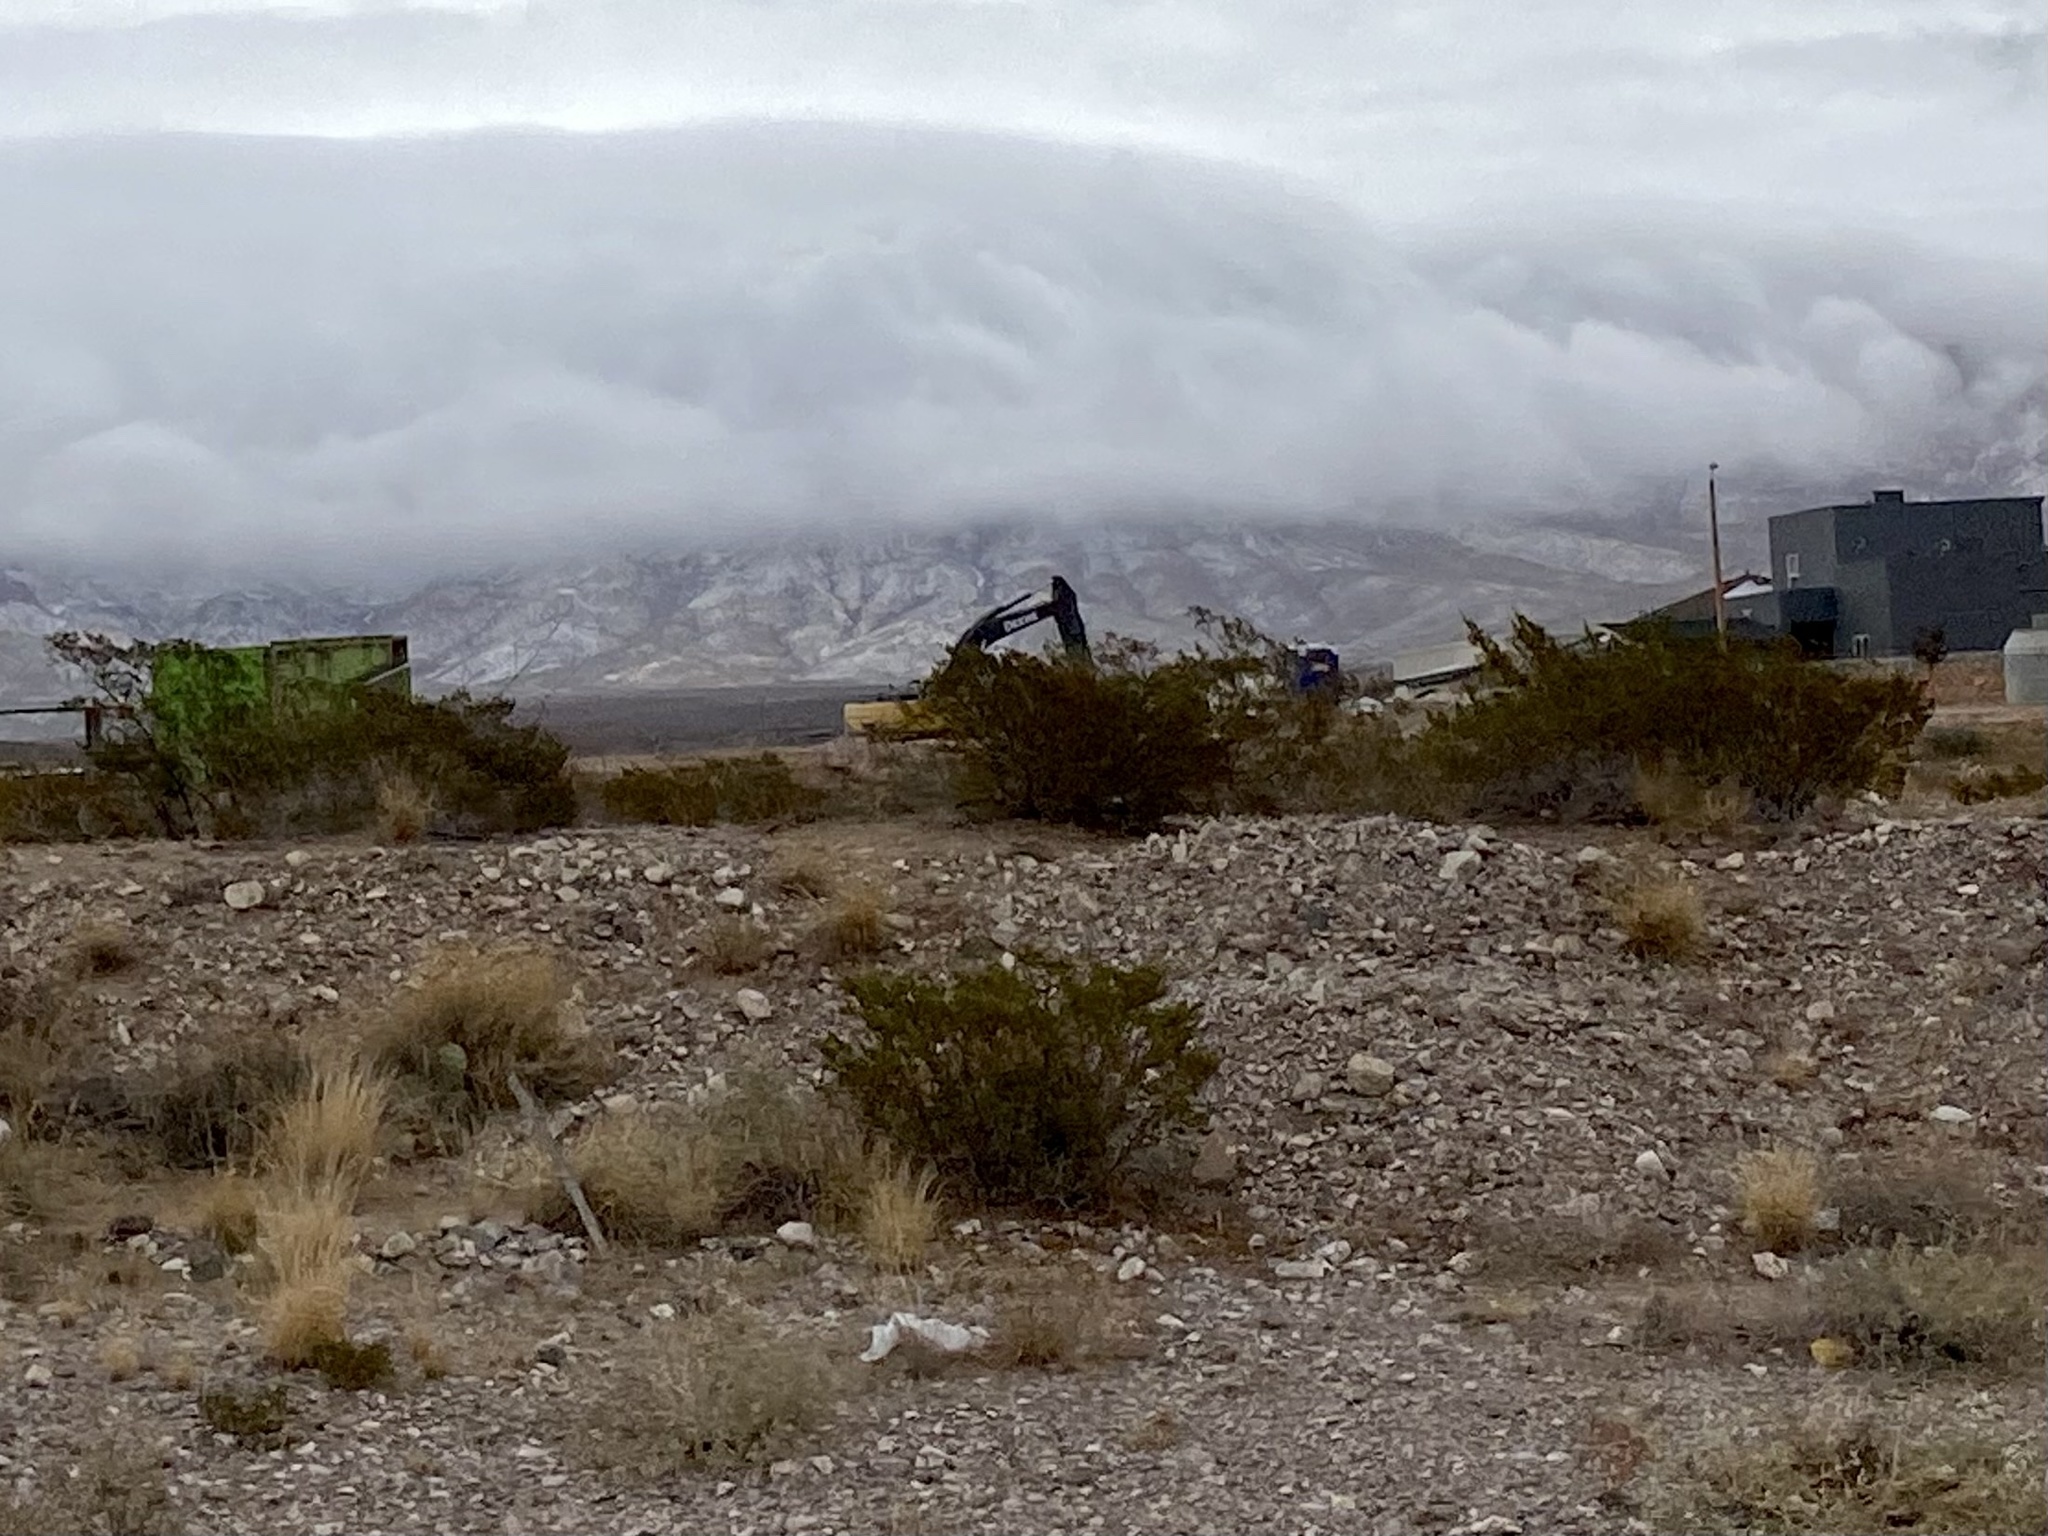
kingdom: Plantae
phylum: Tracheophyta
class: Magnoliopsida
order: Zygophyllales
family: Zygophyllaceae
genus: Larrea
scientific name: Larrea tridentata
